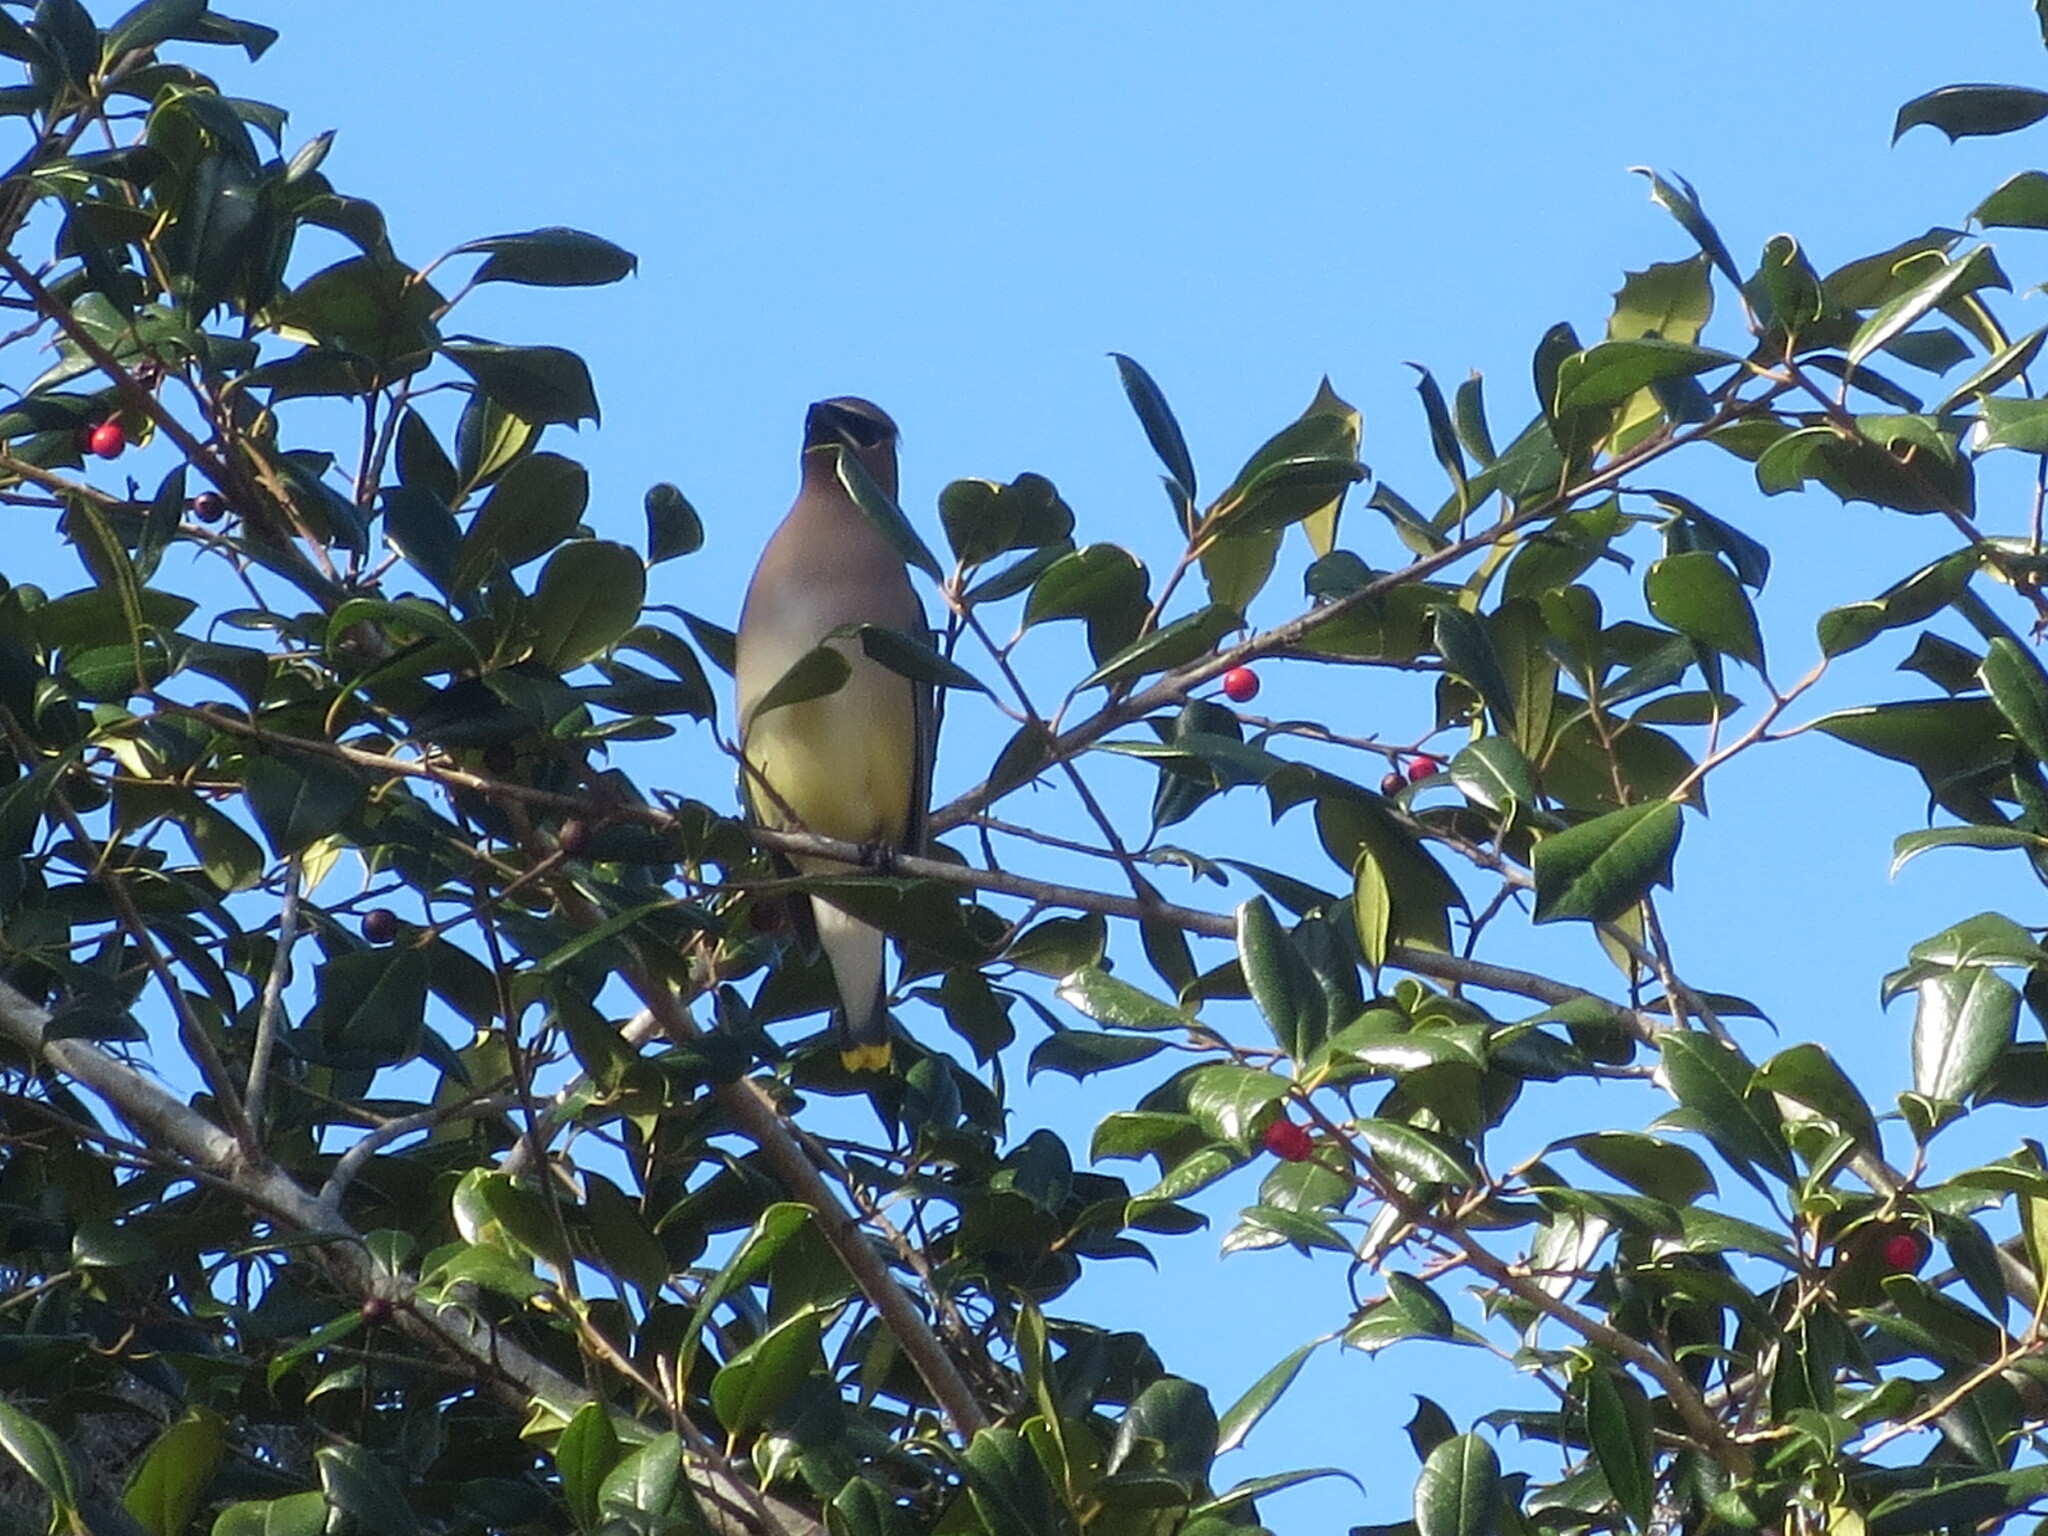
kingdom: Animalia
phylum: Chordata
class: Aves
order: Passeriformes
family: Bombycillidae
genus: Bombycilla
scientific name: Bombycilla cedrorum
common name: Cedar waxwing
